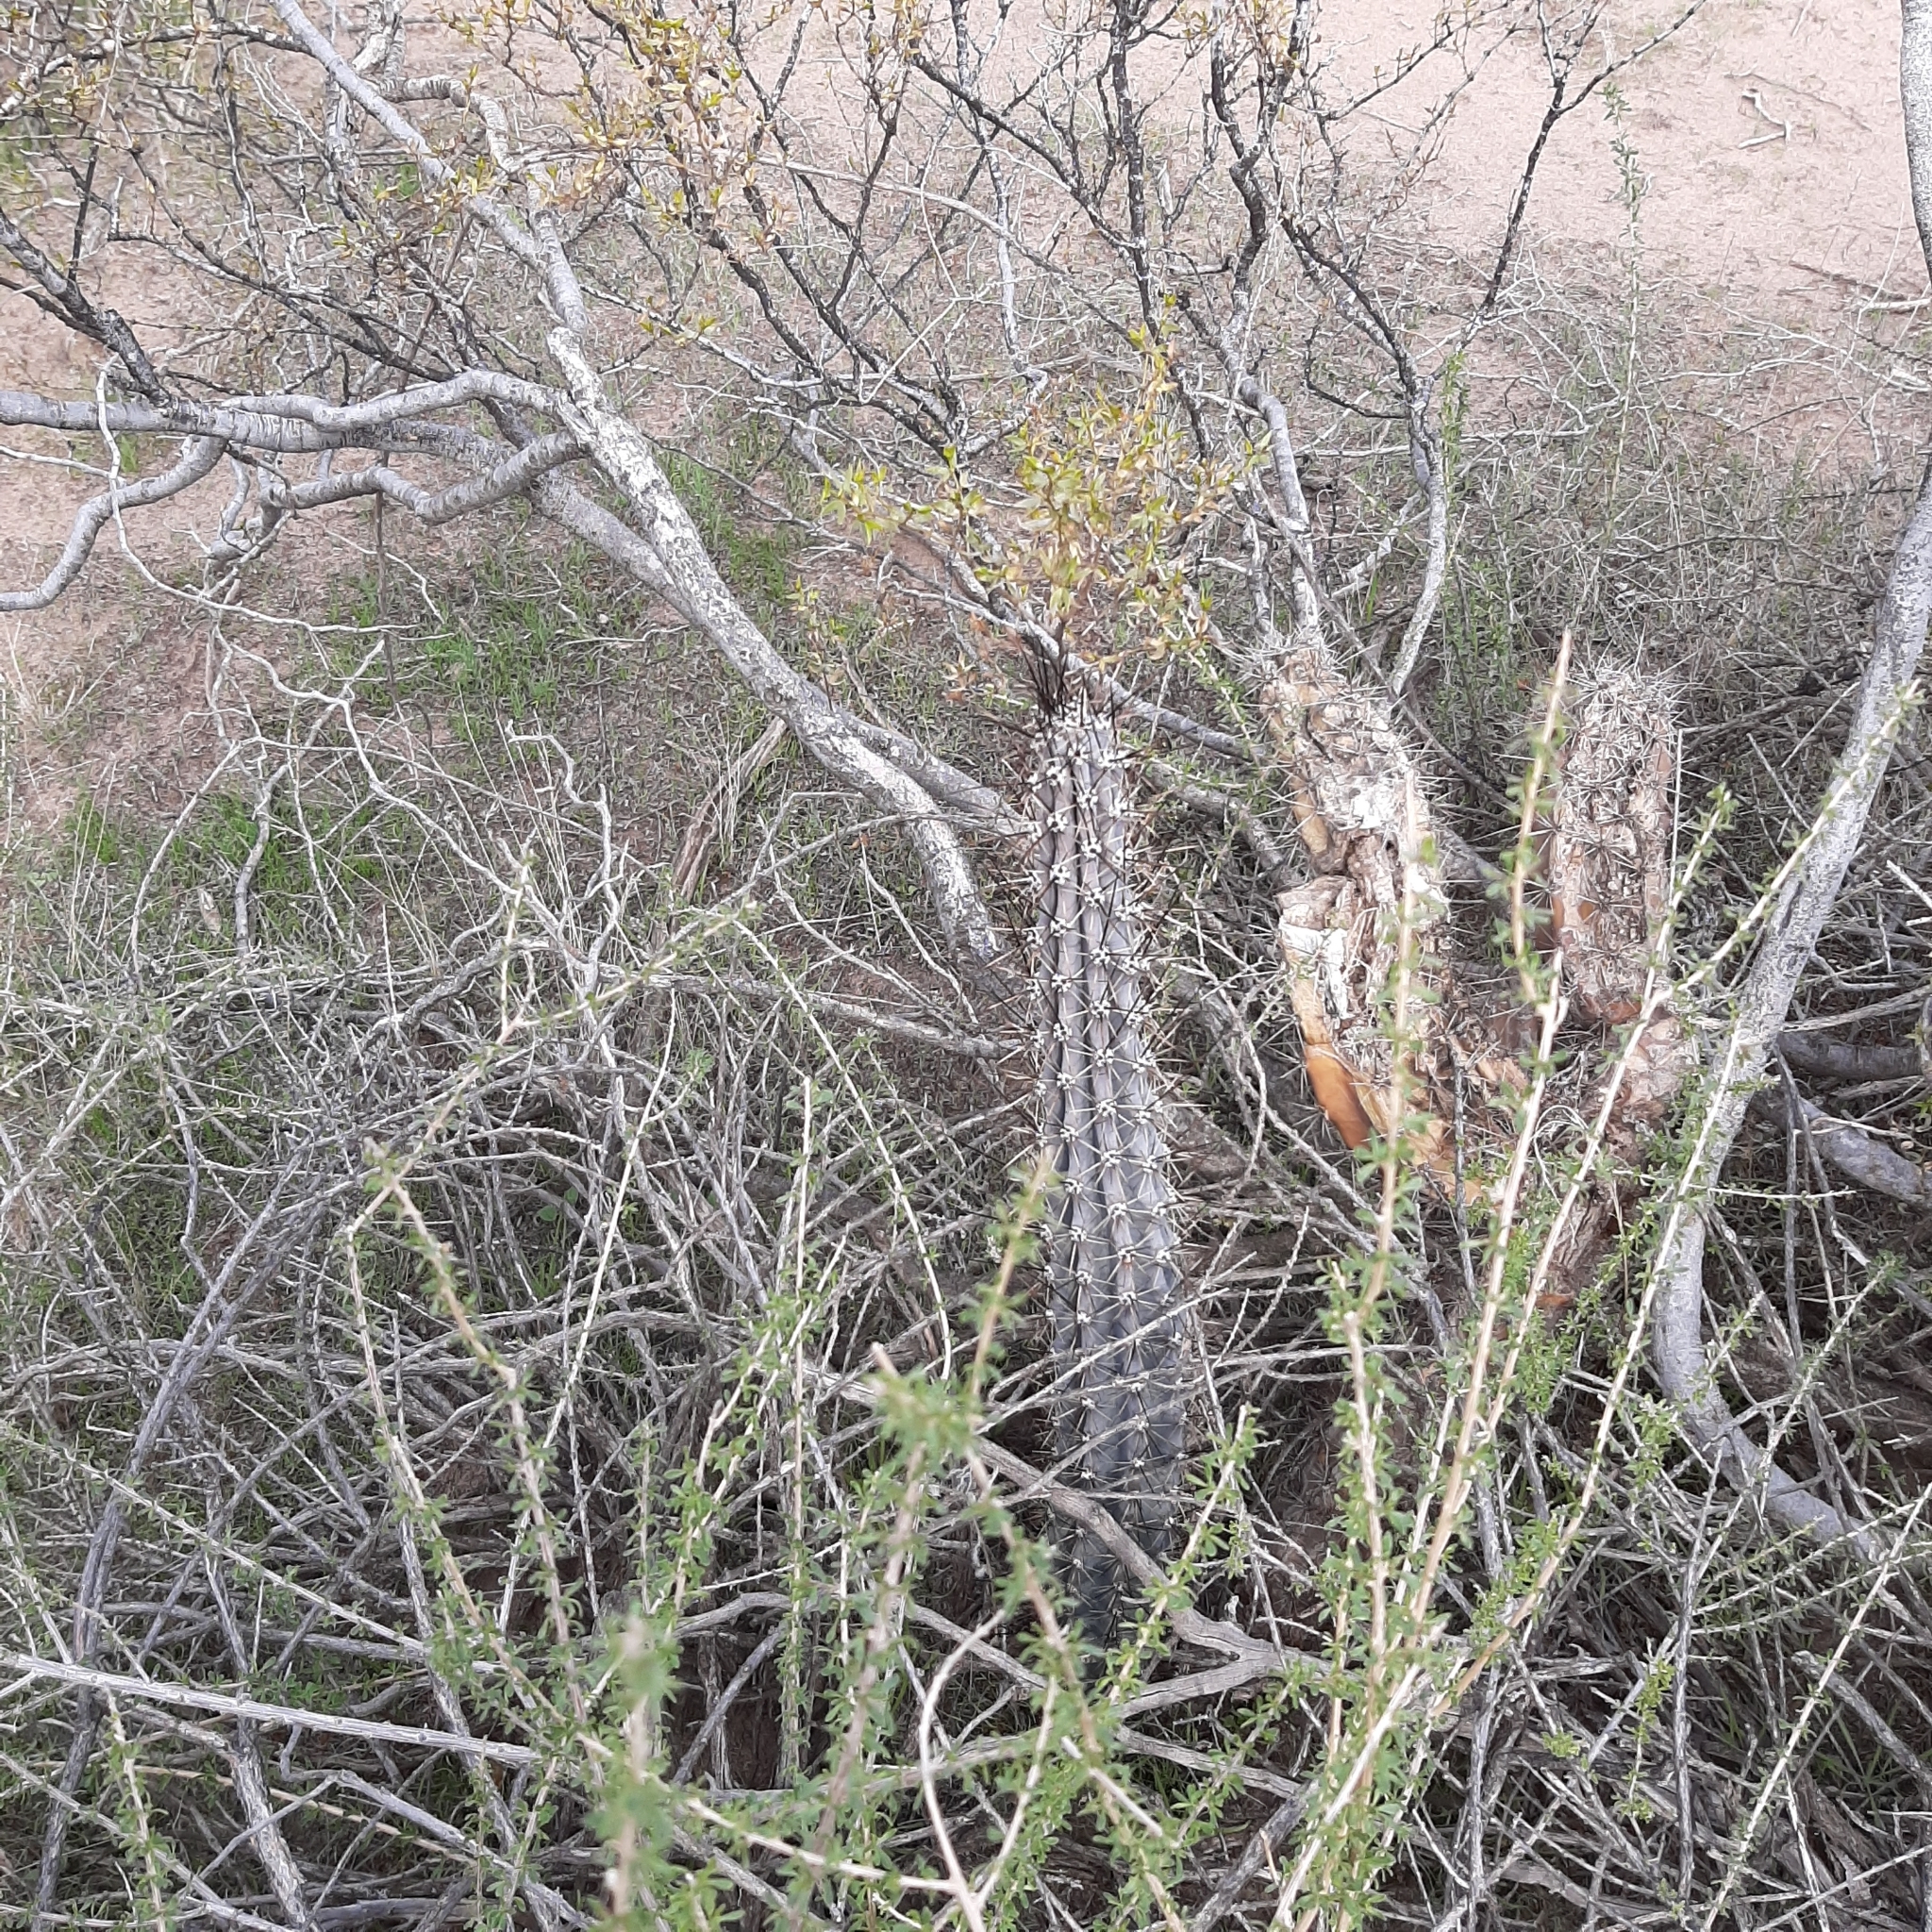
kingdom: Plantae
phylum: Tracheophyta
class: Magnoliopsida
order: Asterales
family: Asteraceae
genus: Hyalis
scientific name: Hyalis argentea
